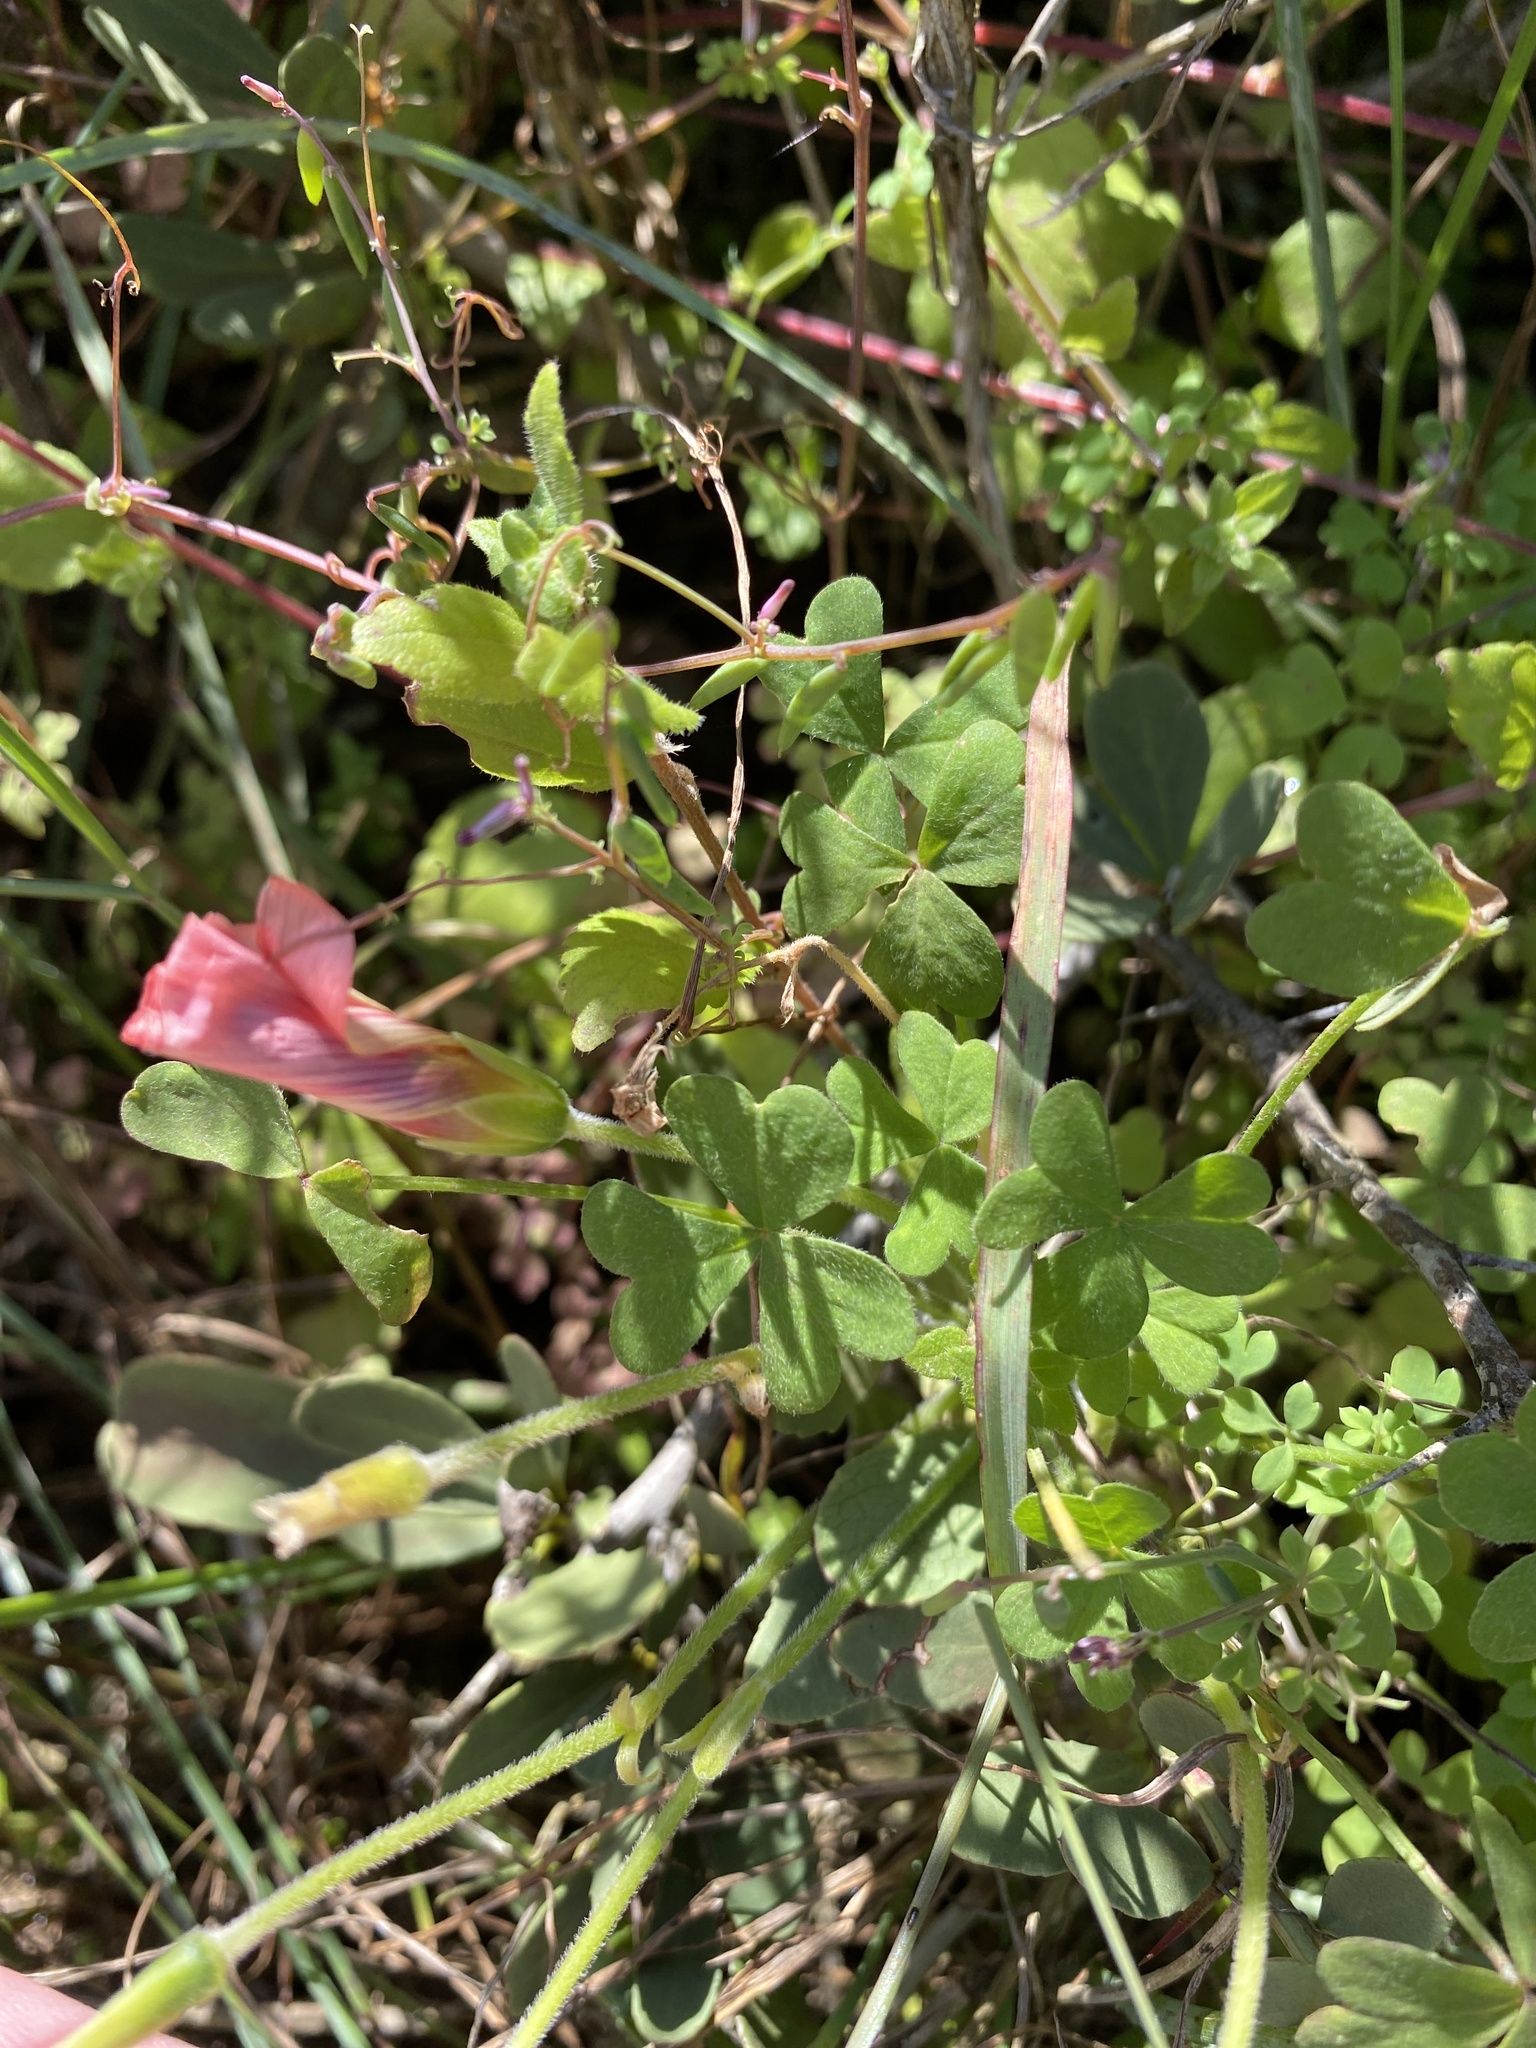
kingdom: Plantae
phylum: Tracheophyta
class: Magnoliopsida
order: Oxalidales
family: Oxalidaceae
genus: Oxalis
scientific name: Oxalis obtusa
